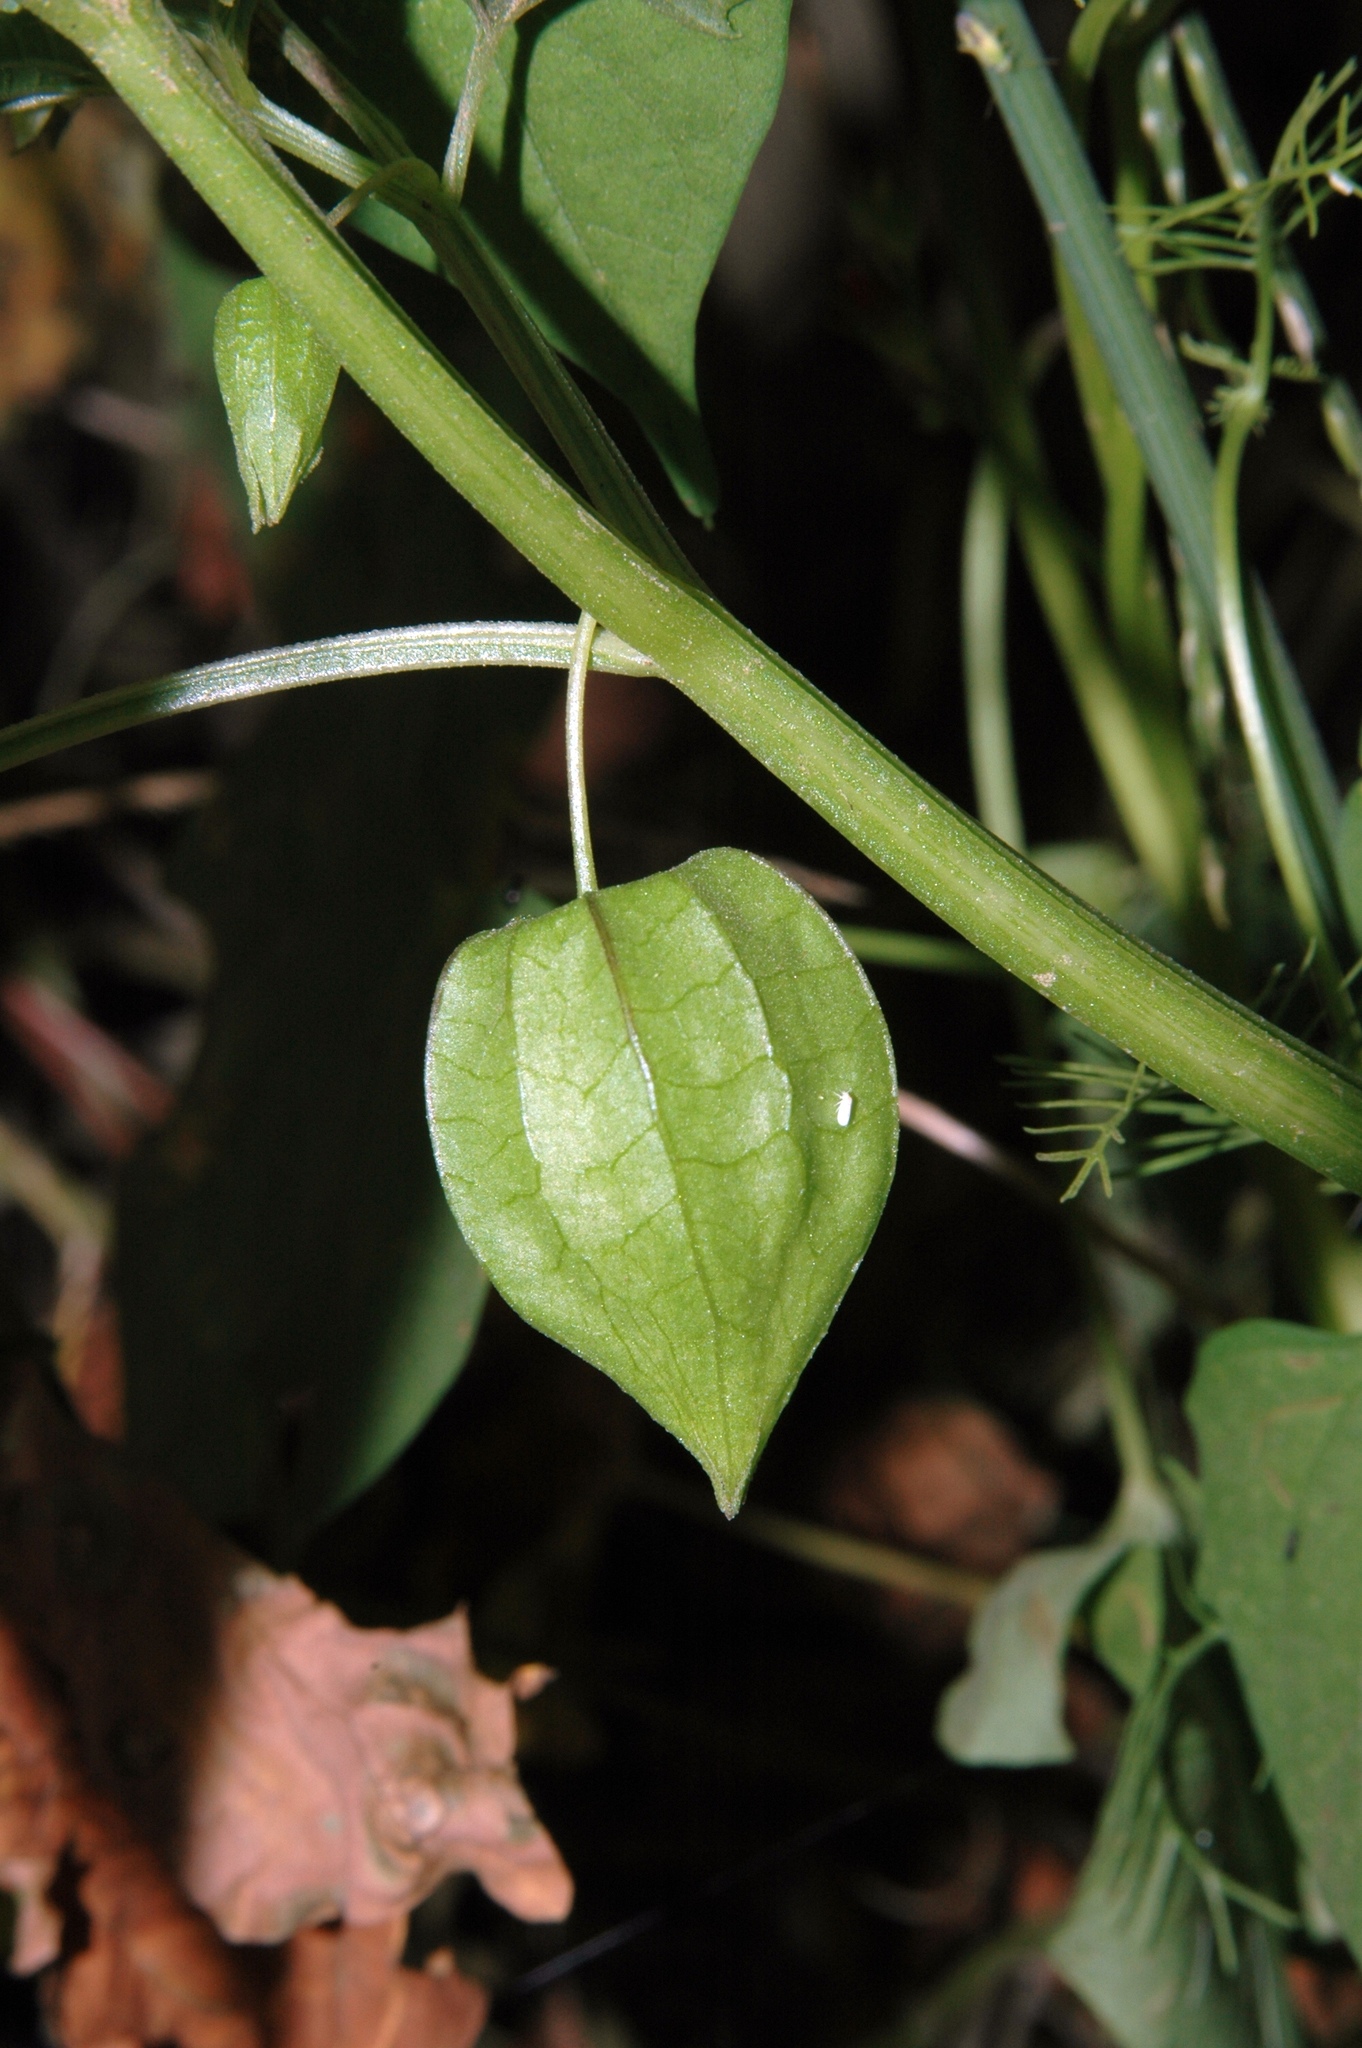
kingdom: Plantae
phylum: Tracheophyta
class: Magnoliopsida
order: Solanales
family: Solanaceae
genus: Physalis
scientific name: Physalis angulata
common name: Angular winter-cherry
